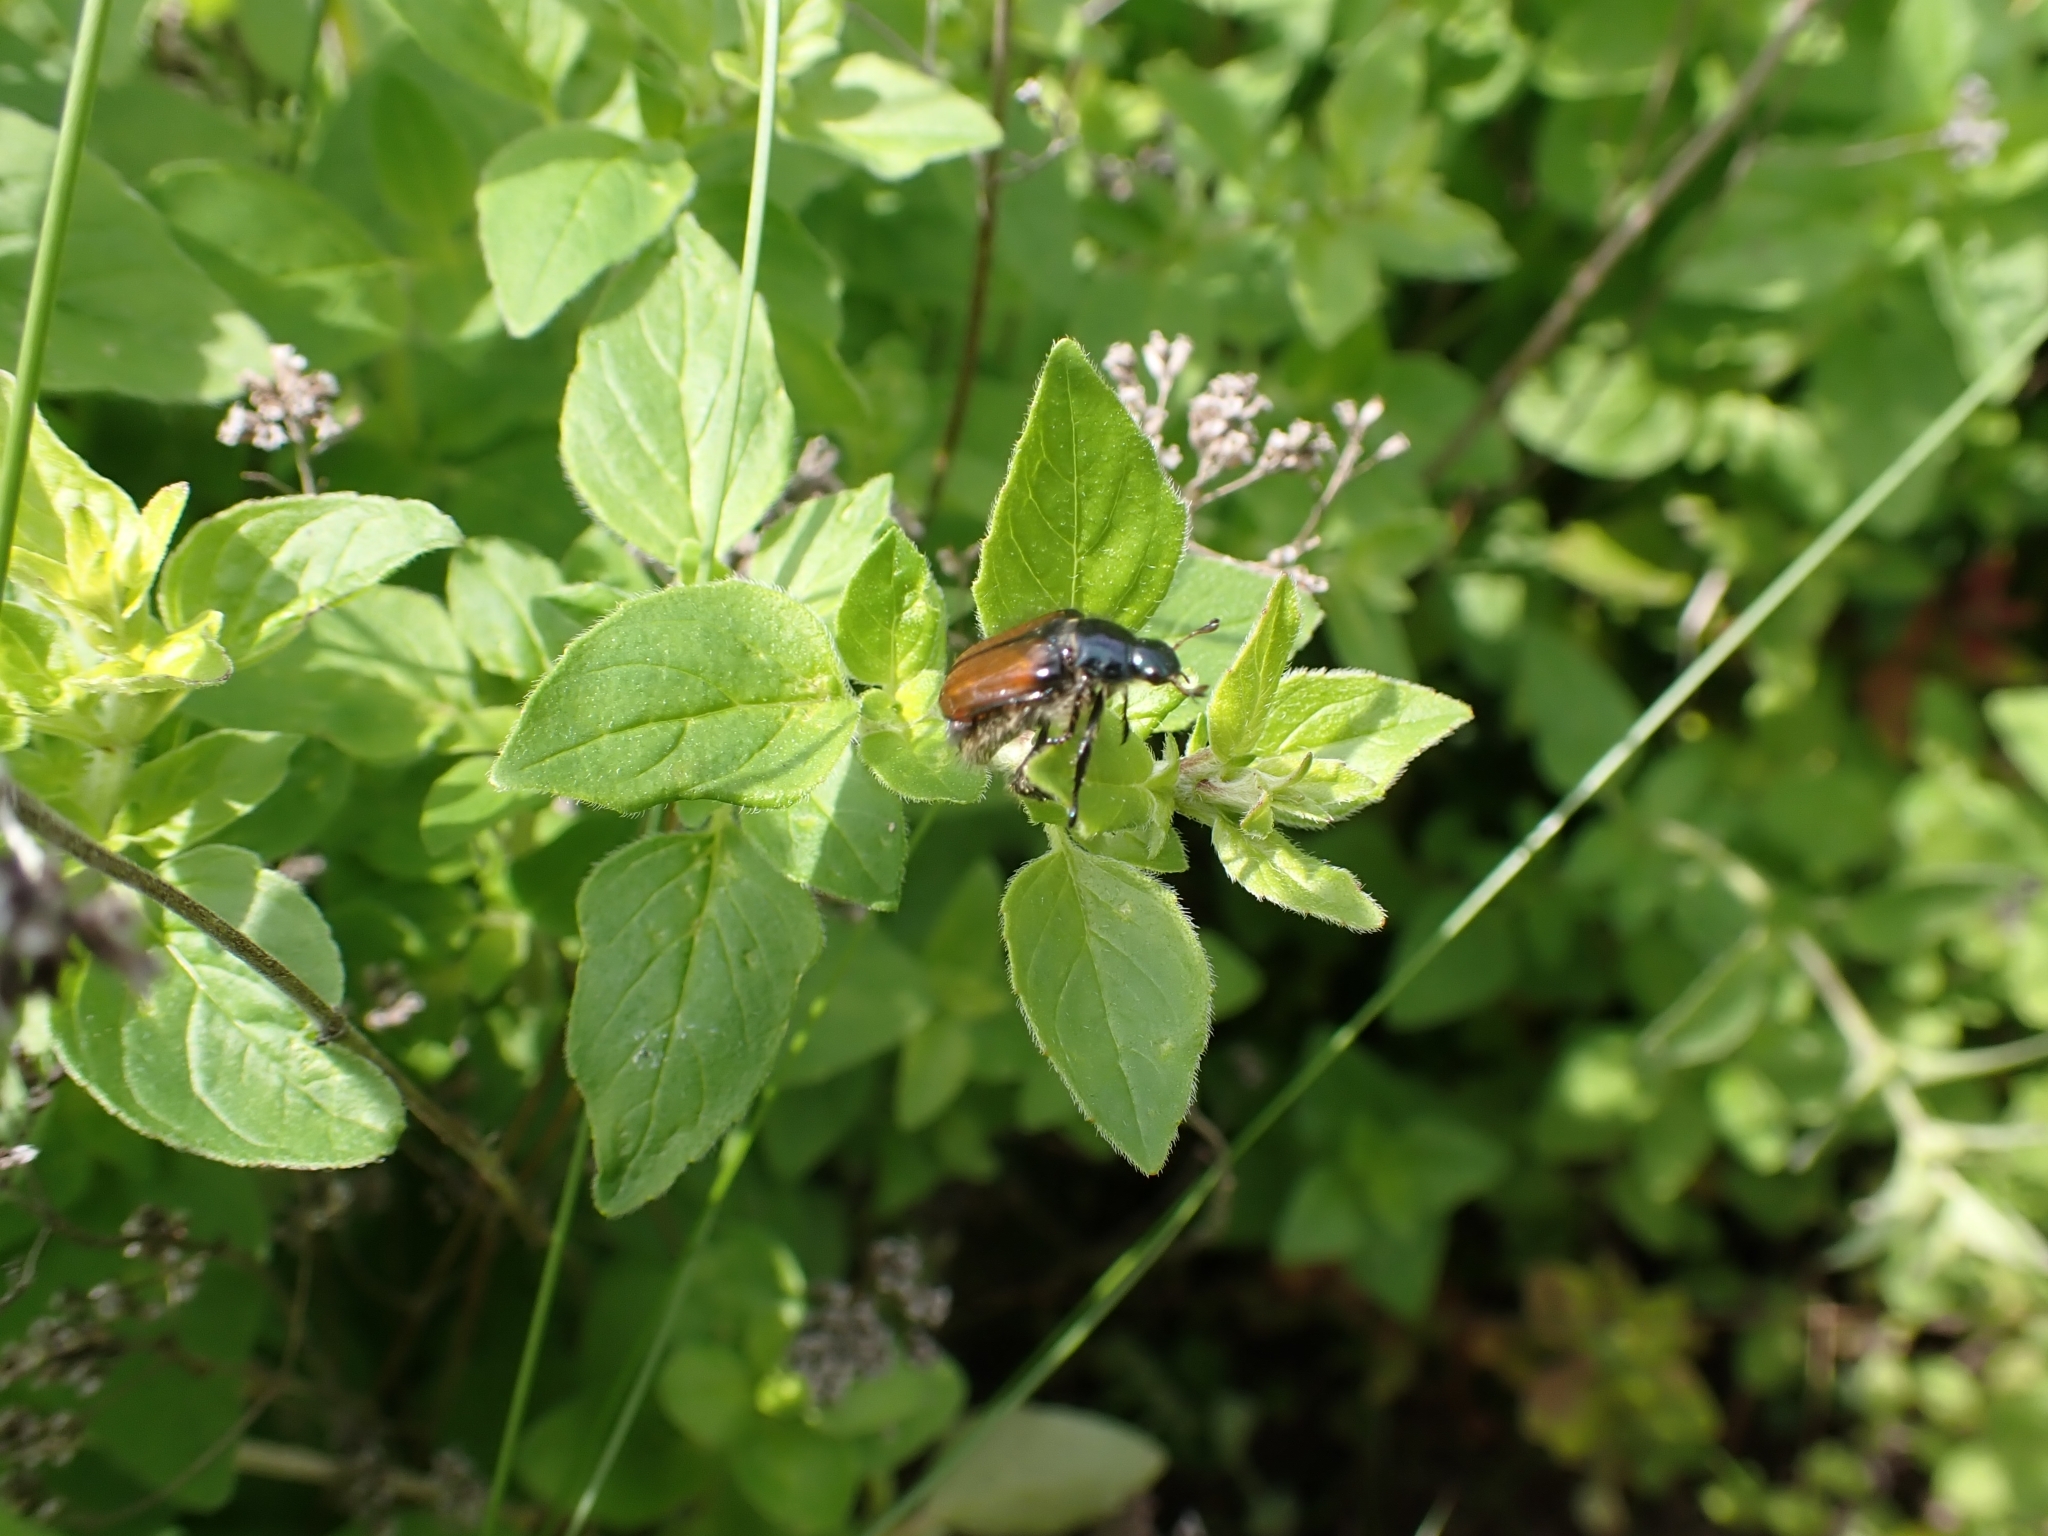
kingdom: Animalia
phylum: Arthropoda
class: Insecta
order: Coleoptera
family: Scarabaeidae
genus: Phyllopertha
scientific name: Phyllopertha horticola
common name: Garden chafer
